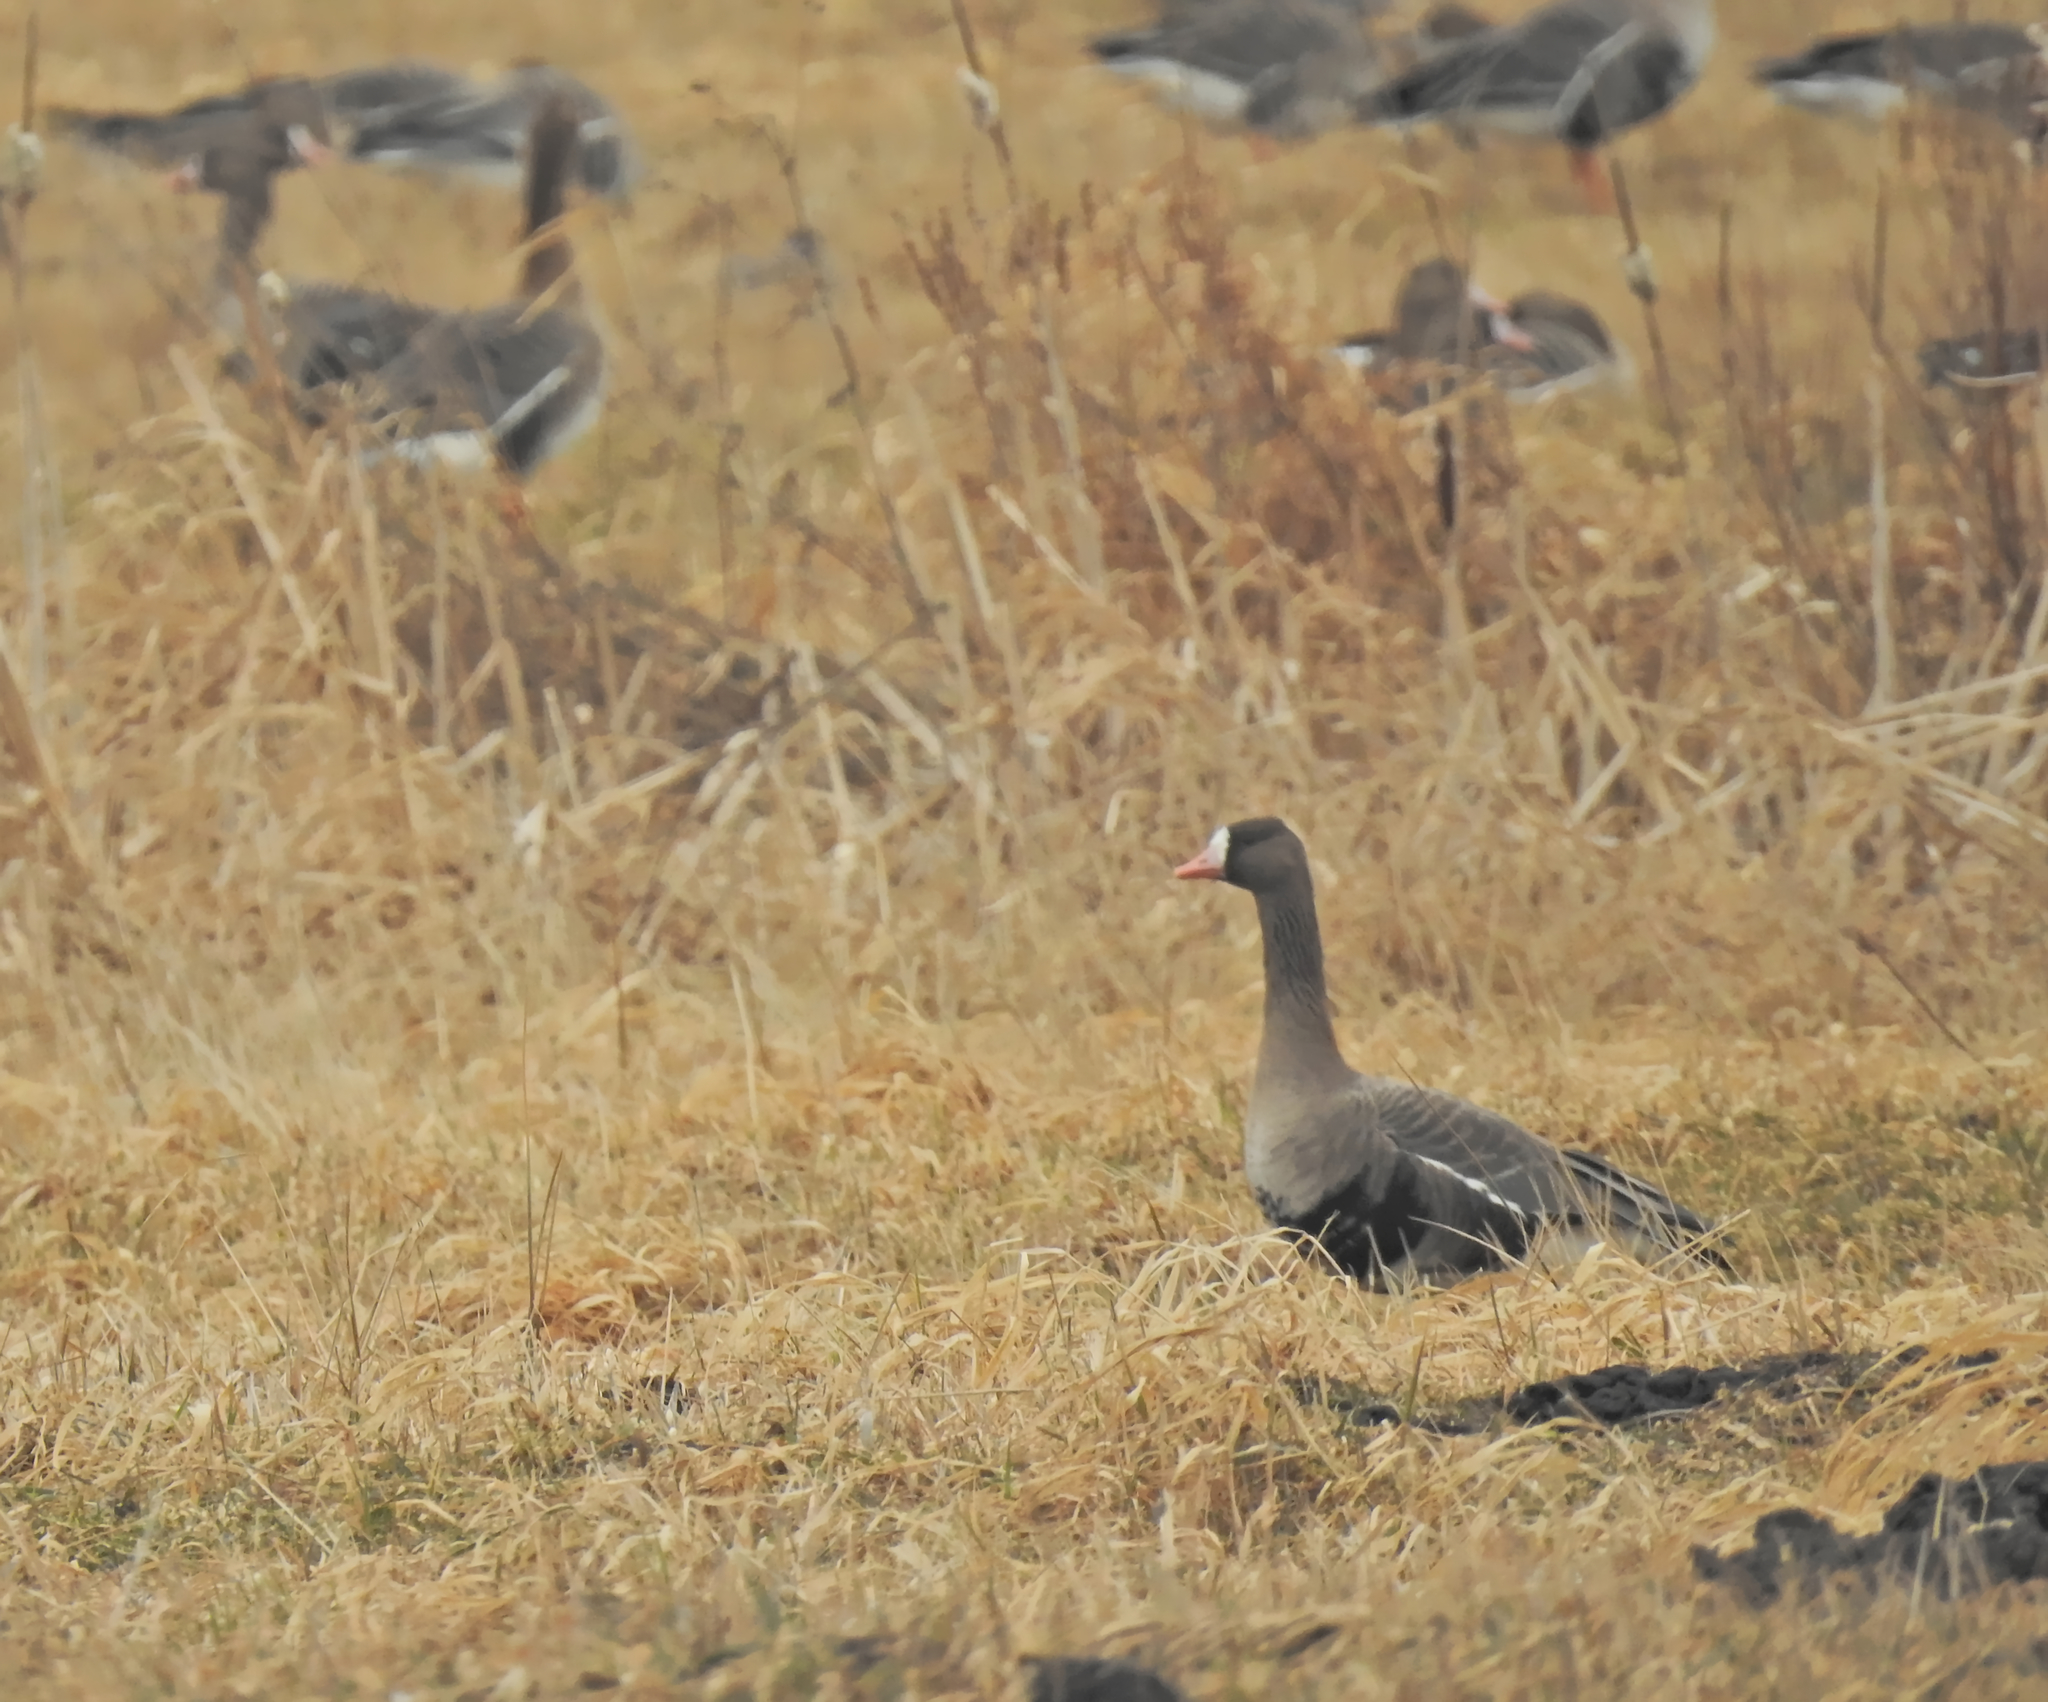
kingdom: Animalia
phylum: Chordata
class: Aves
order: Anseriformes
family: Anatidae
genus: Anser
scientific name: Anser albifrons
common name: Greater white-fronted goose
